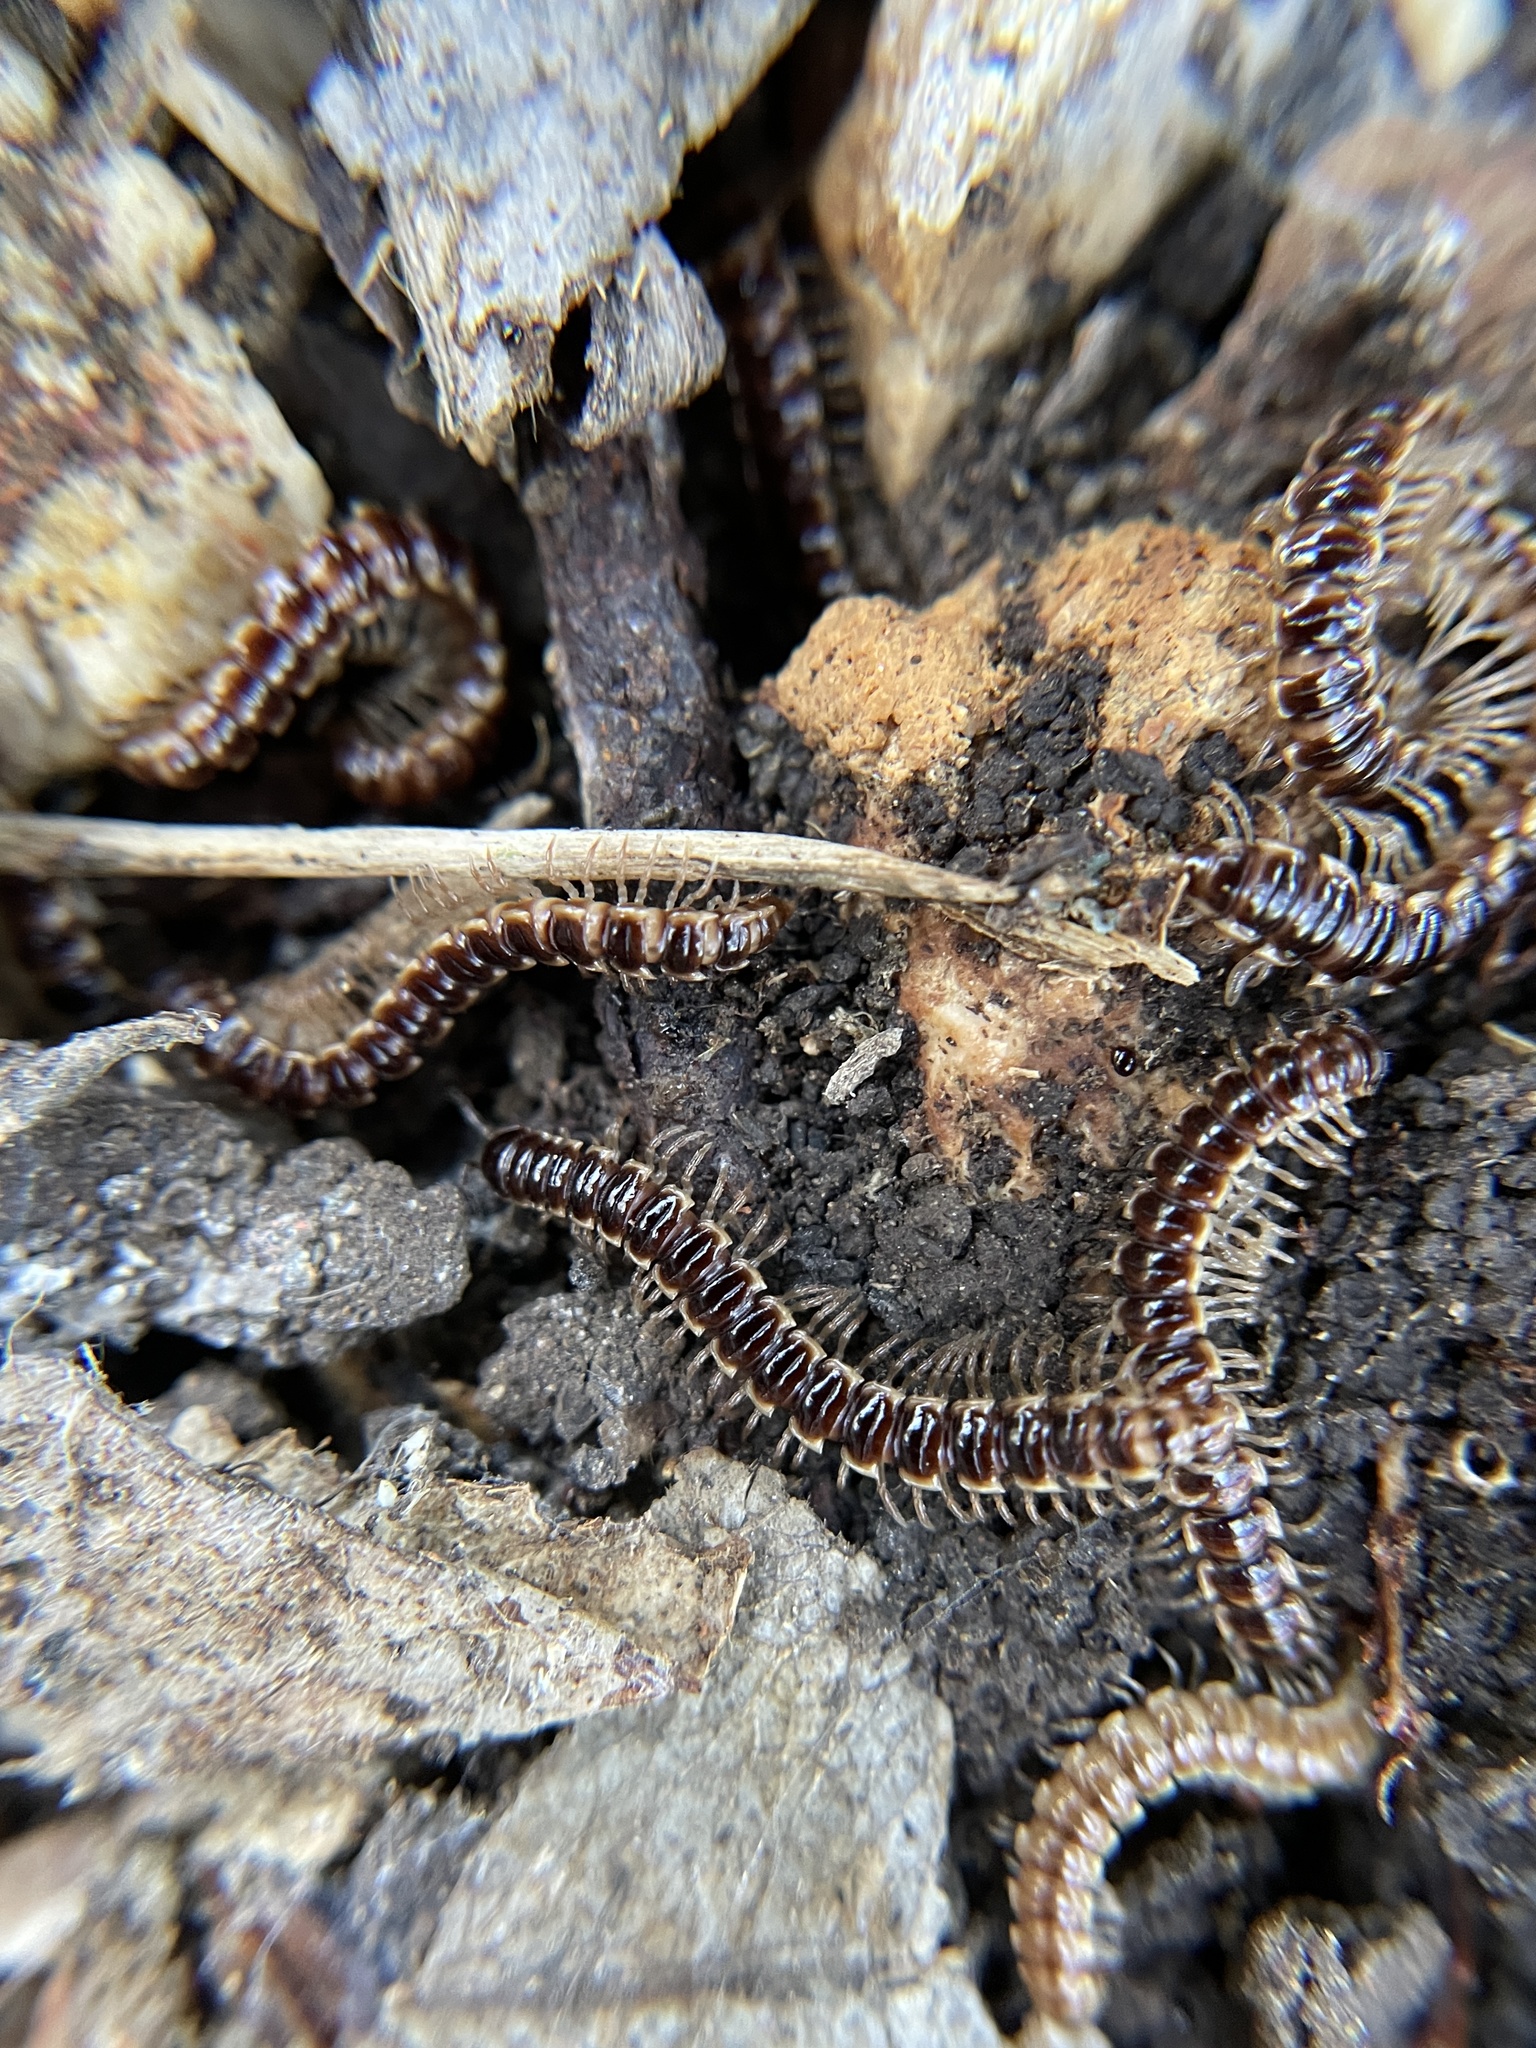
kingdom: Animalia
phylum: Arthropoda
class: Diplopoda
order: Polydesmida
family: Paradoxosomatidae
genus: Oxidus
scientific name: Oxidus gracilis
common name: Greenhouse millipede
